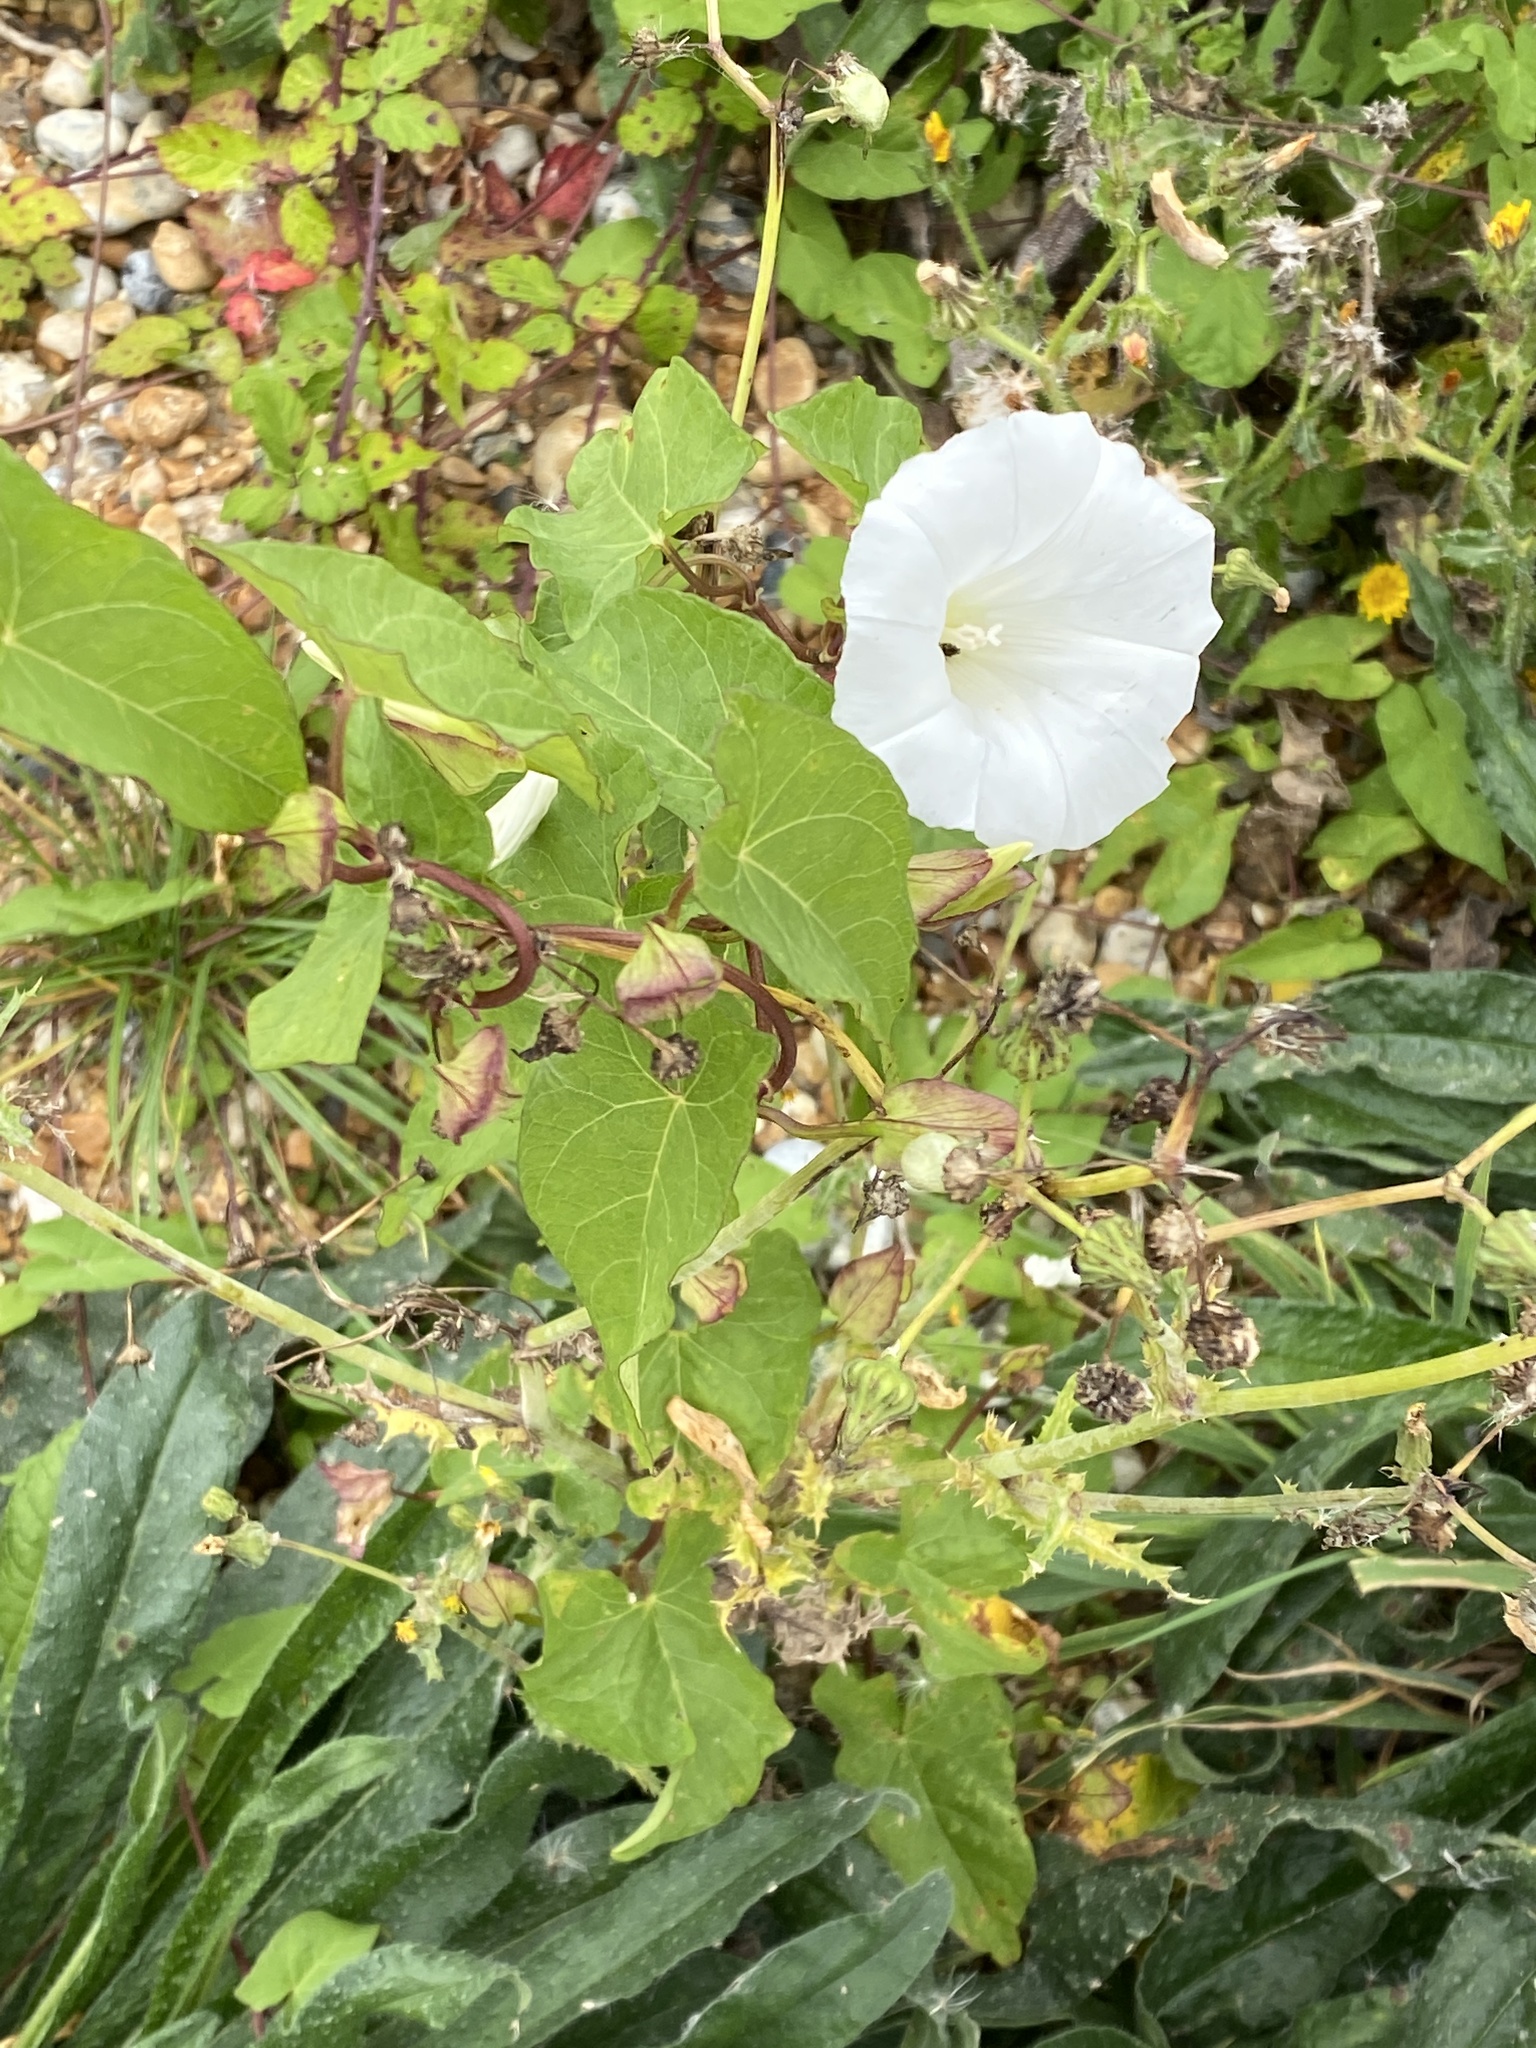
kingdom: Plantae
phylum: Tracheophyta
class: Magnoliopsida
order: Solanales
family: Convolvulaceae
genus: Calystegia
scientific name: Calystegia silvatica
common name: Large bindweed
